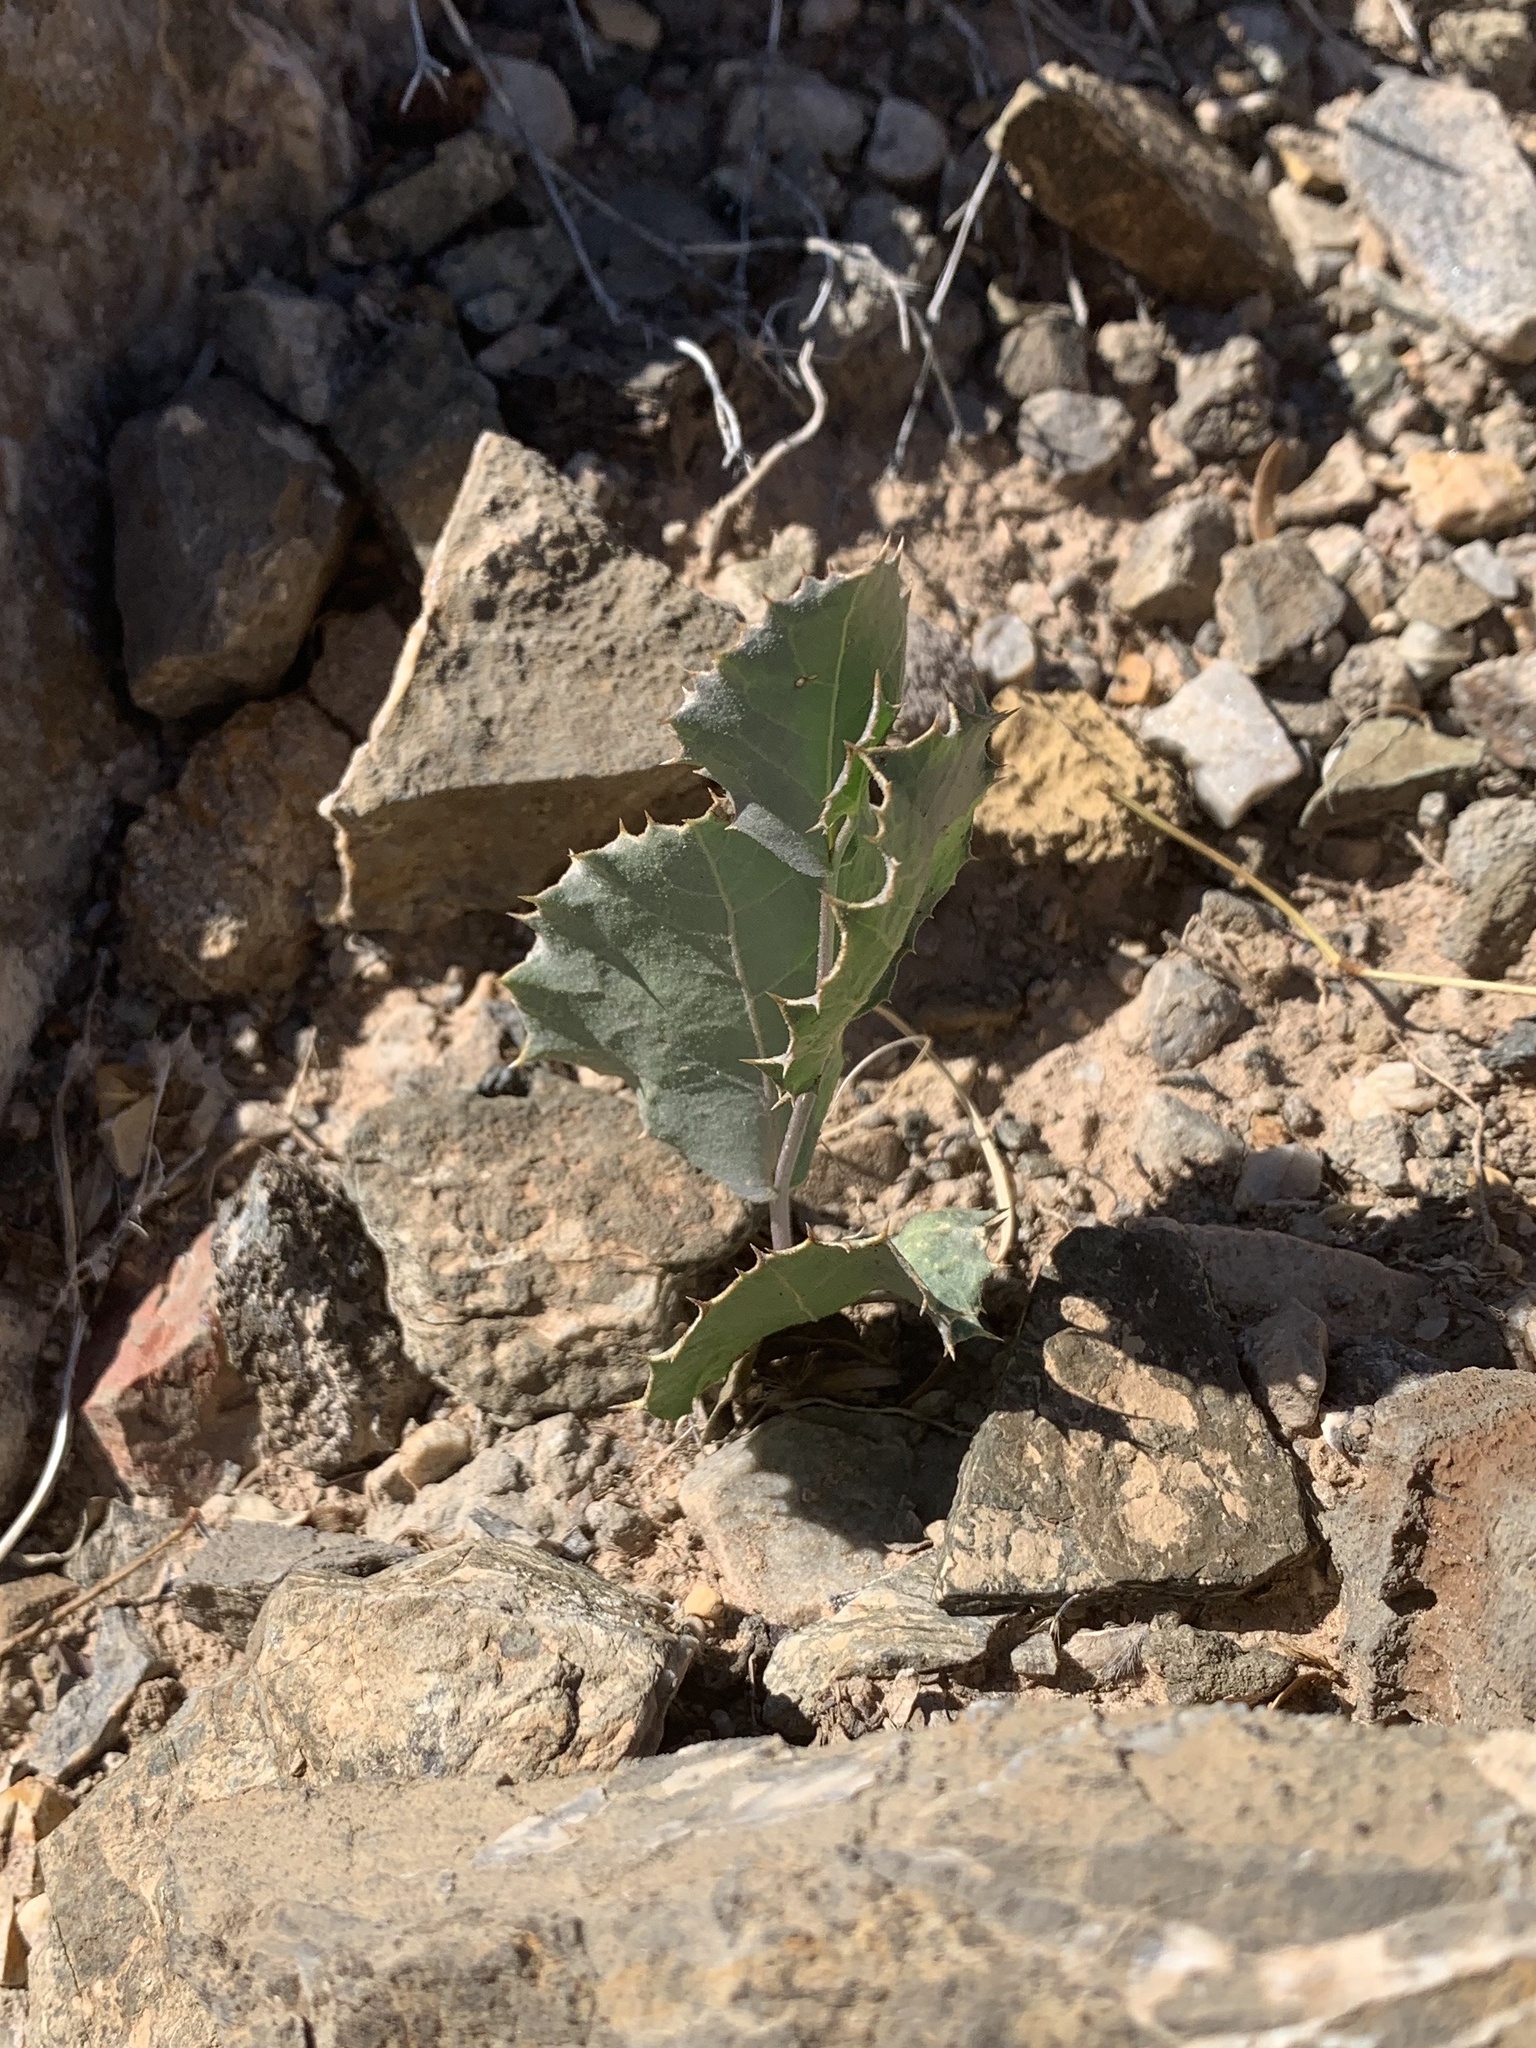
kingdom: Plantae
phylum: Tracheophyta
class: Magnoliopsida
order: Asterales
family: Asteraceae
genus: Acourtia
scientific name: Acourtia nana
